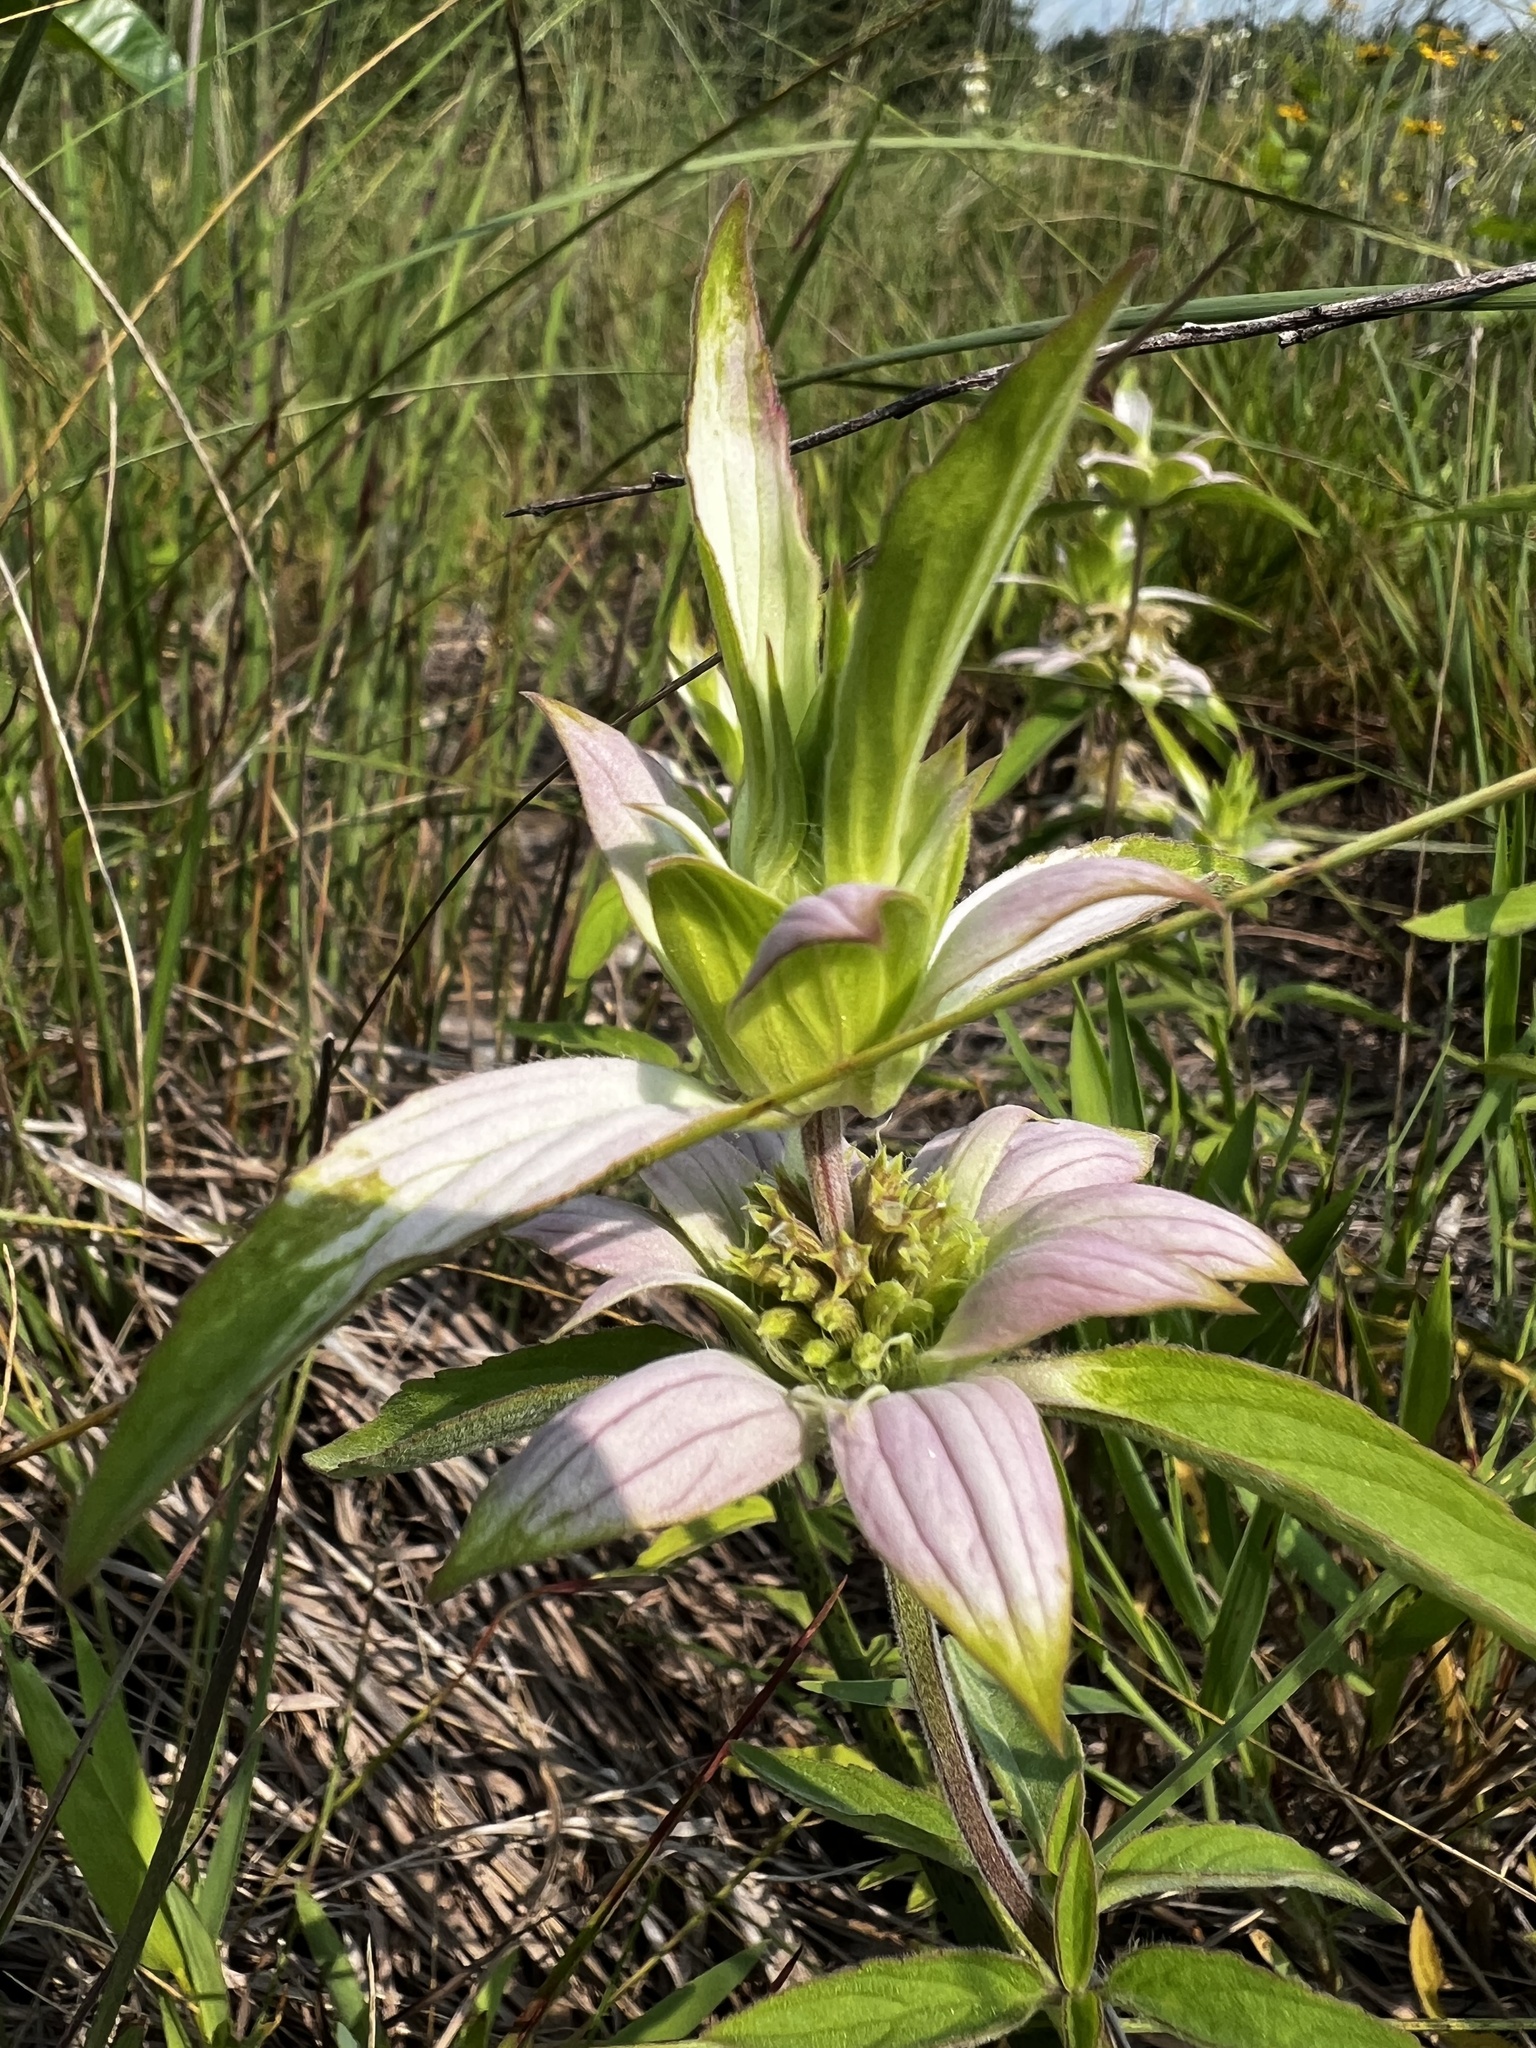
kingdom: Plantae
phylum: Tracheophyta
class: Magnoliopsida
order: Lamiales
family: Lamiaceae
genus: Monarda
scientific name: Monarda punctata
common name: Dotted monarda
